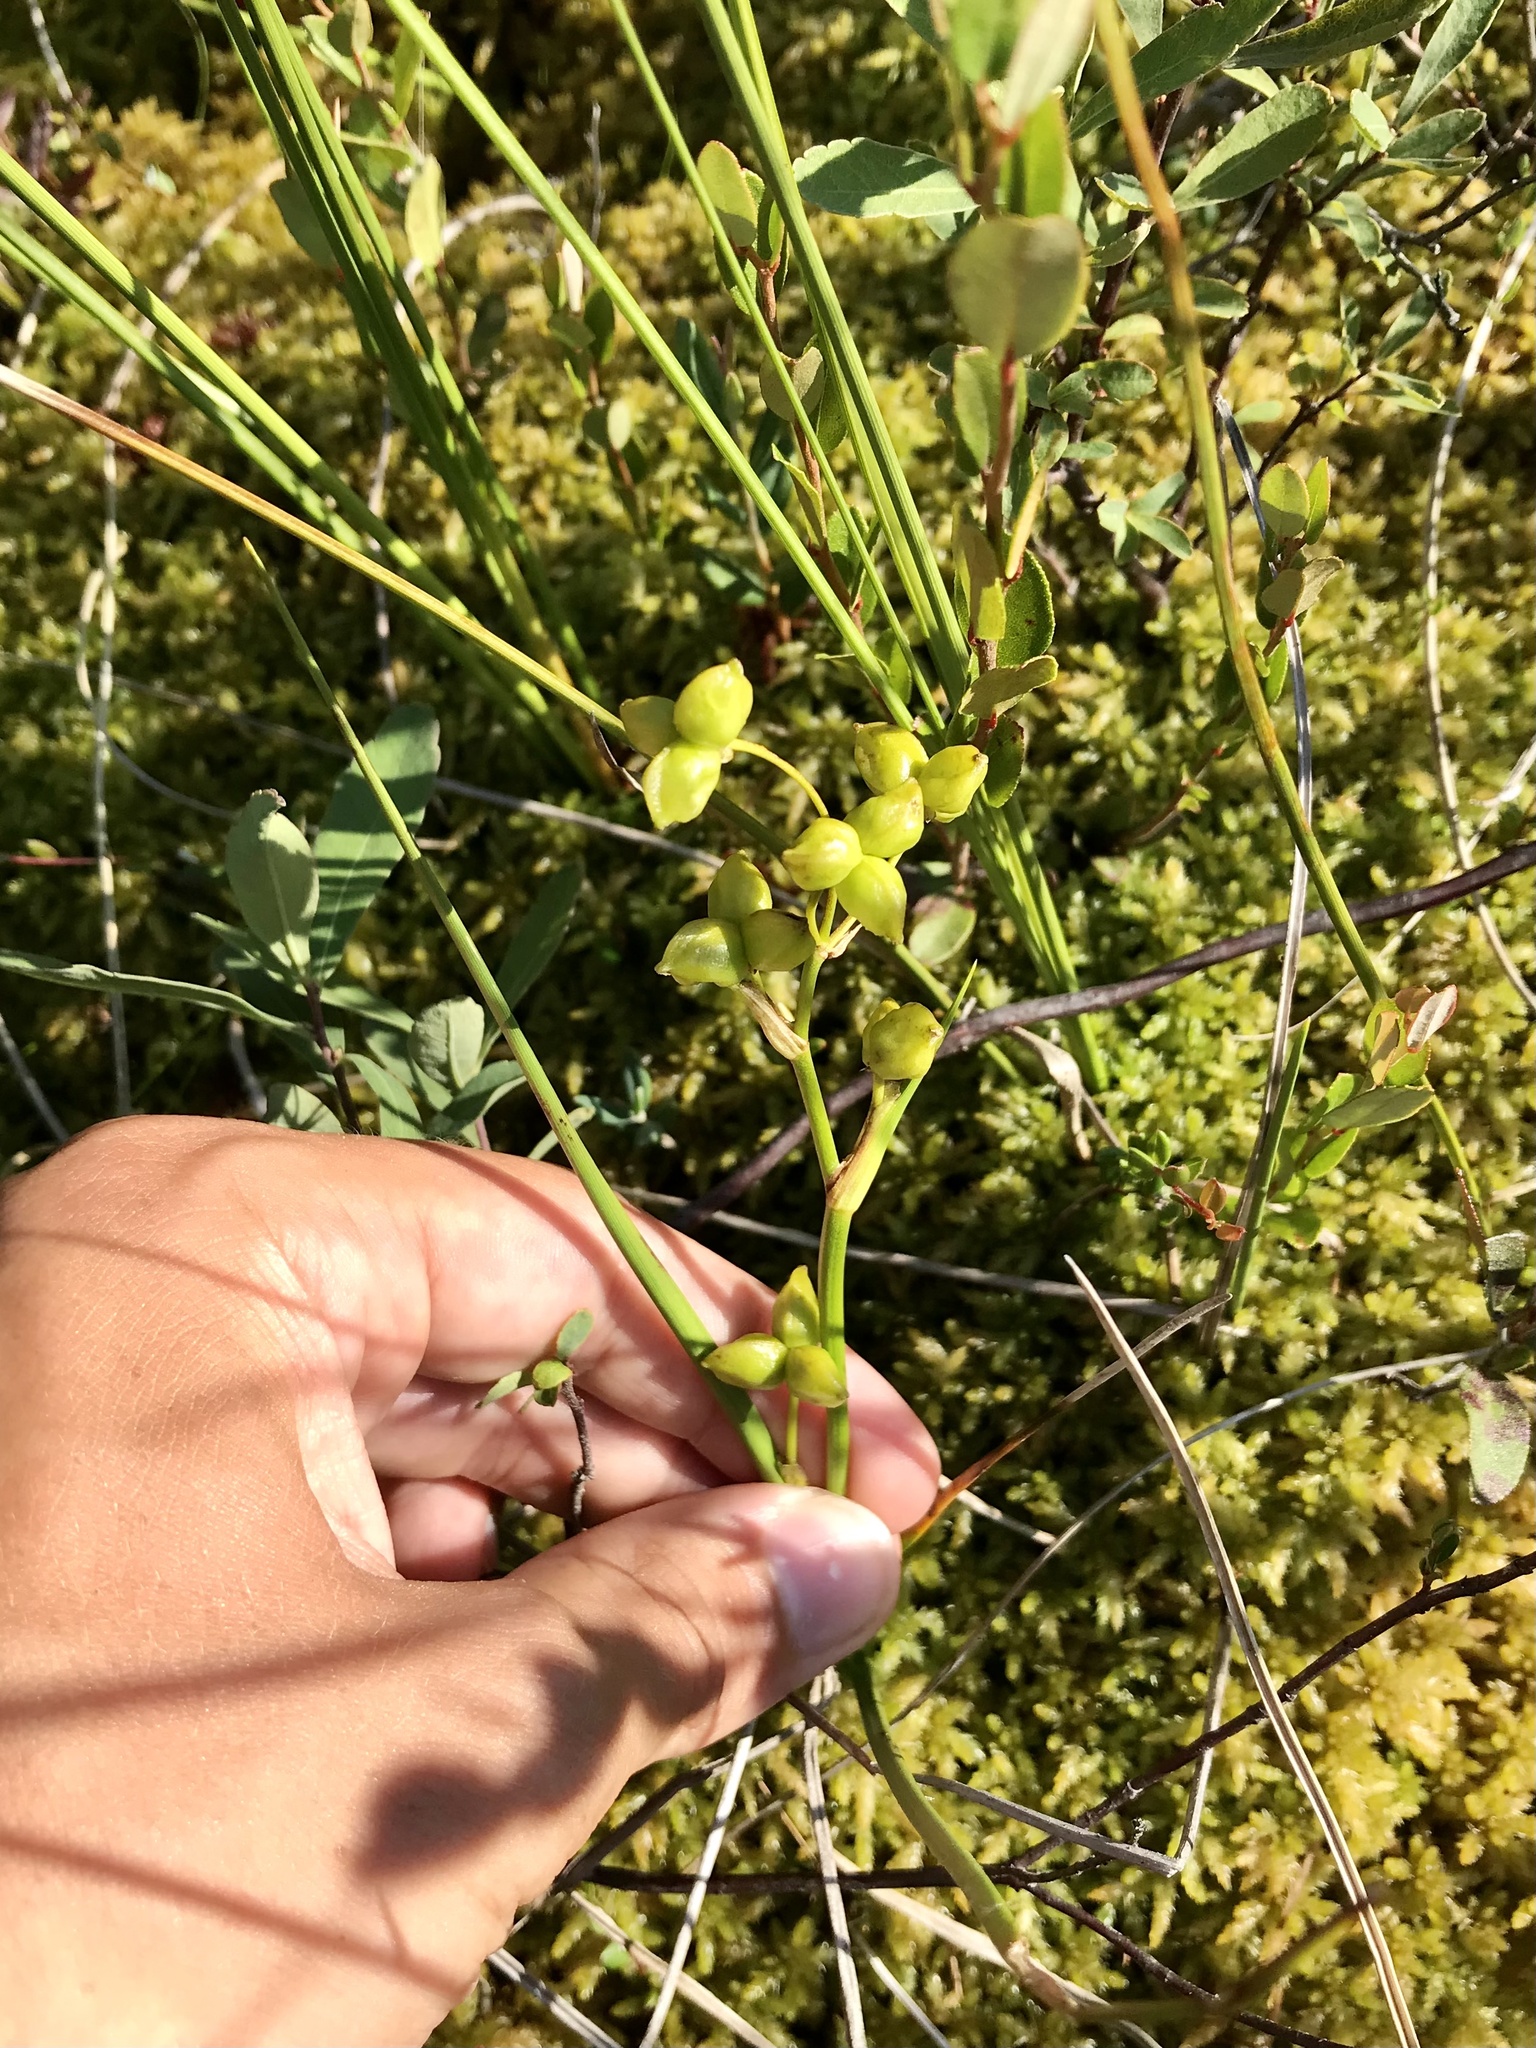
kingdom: Plantae
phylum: Tracheophyta
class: Liliopsida
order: Alismatales
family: Scheuchzeriaceae
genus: Scheuchzeria
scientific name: Scheuchzeria palustris
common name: Rannoch-rush
